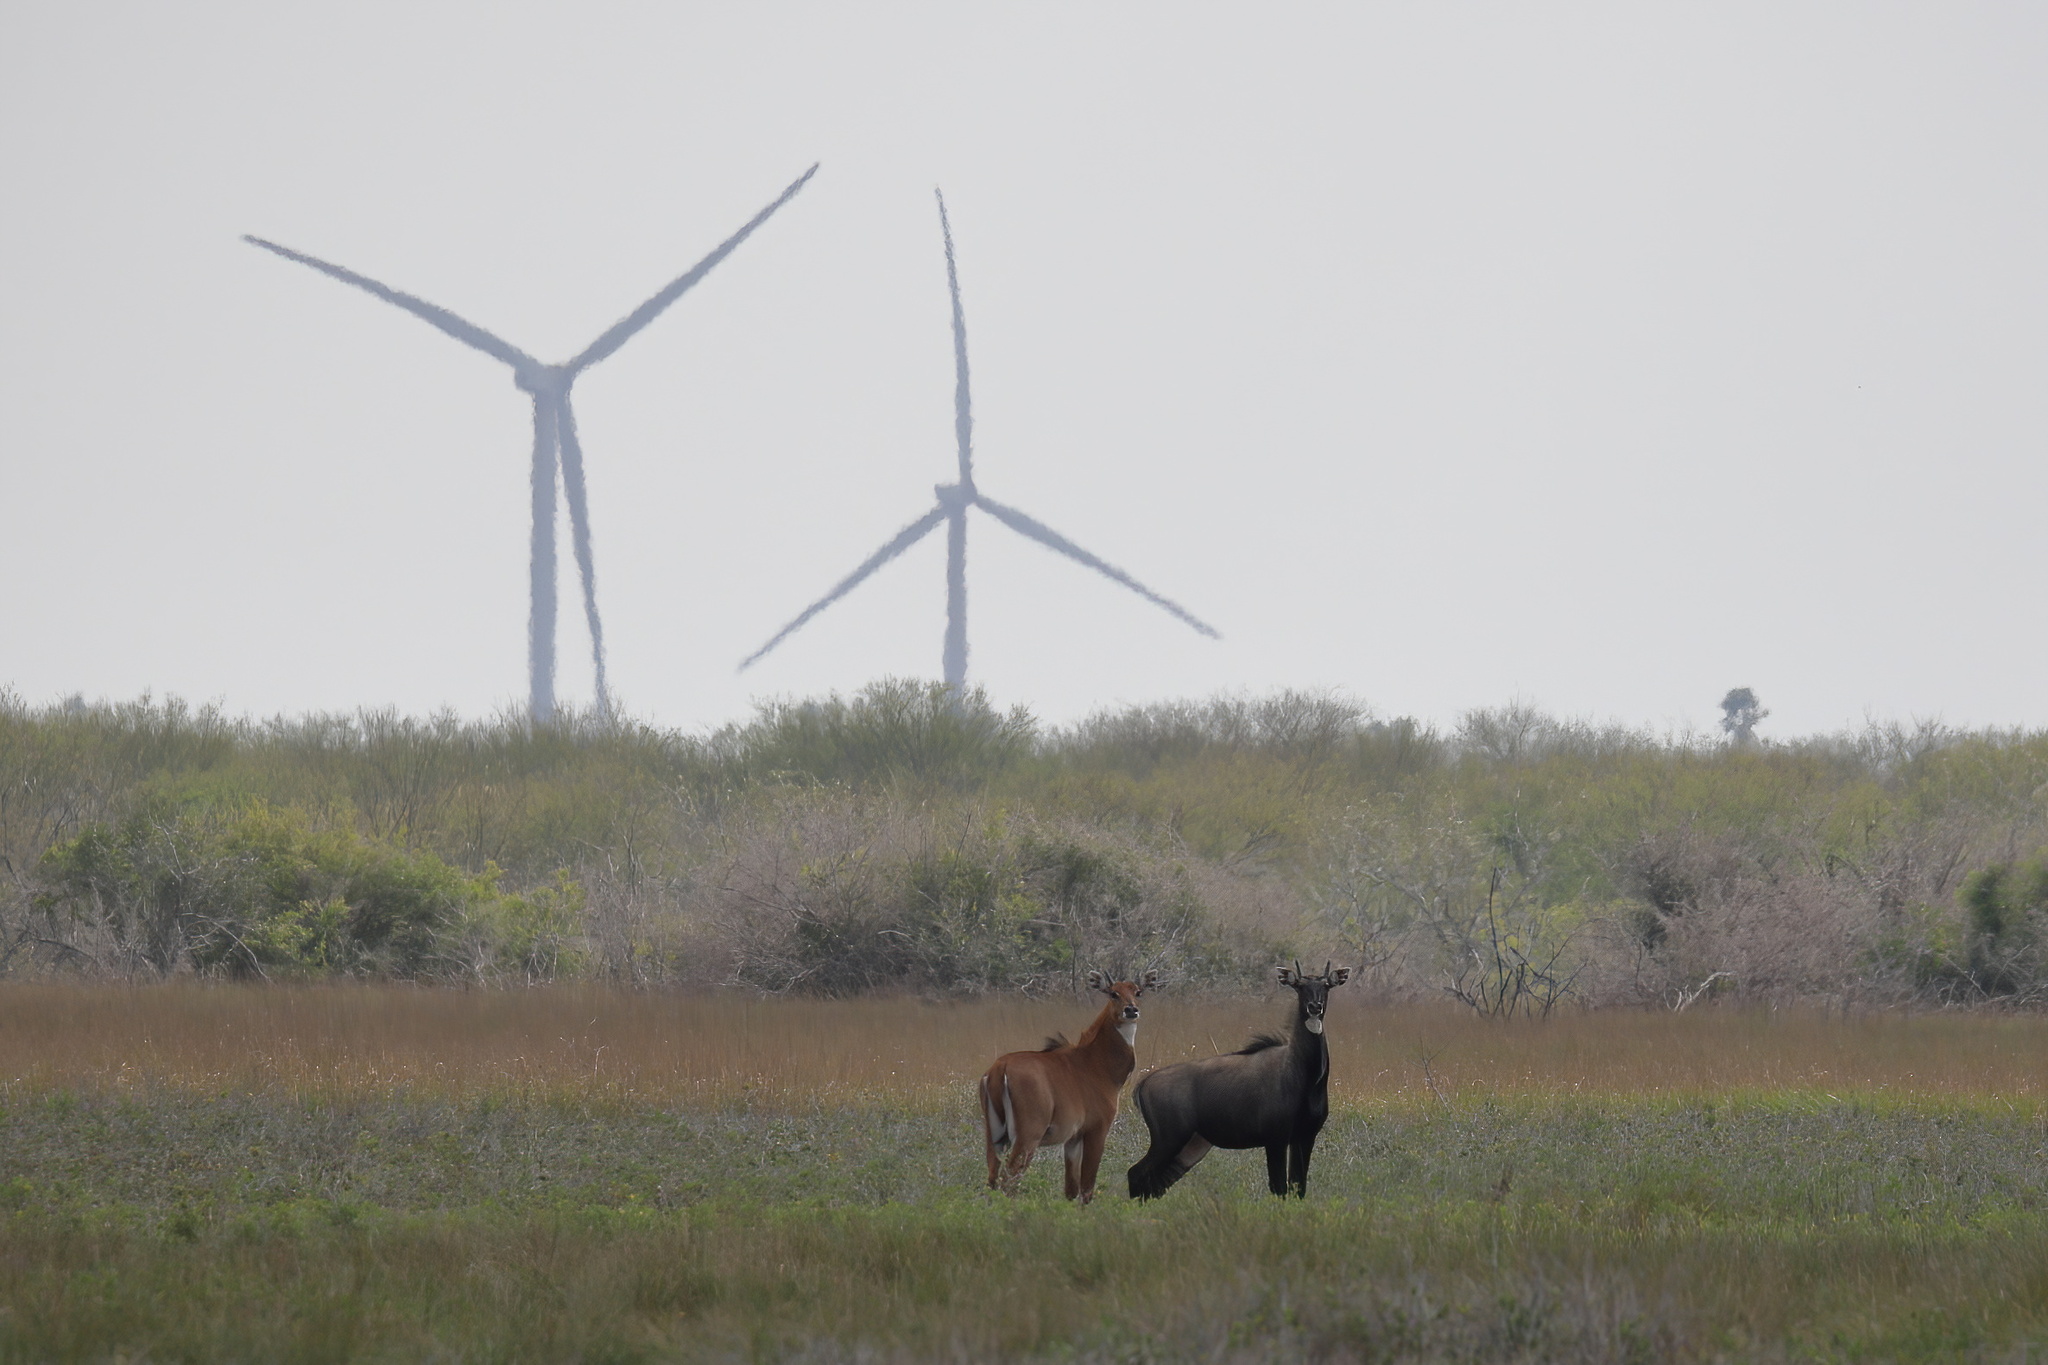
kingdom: Animalia
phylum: Chordata
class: Mammalia
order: Artiodactyla
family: Bovidae
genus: Boselaphus
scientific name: Boselaphus tragocamelus
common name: Nilgai
